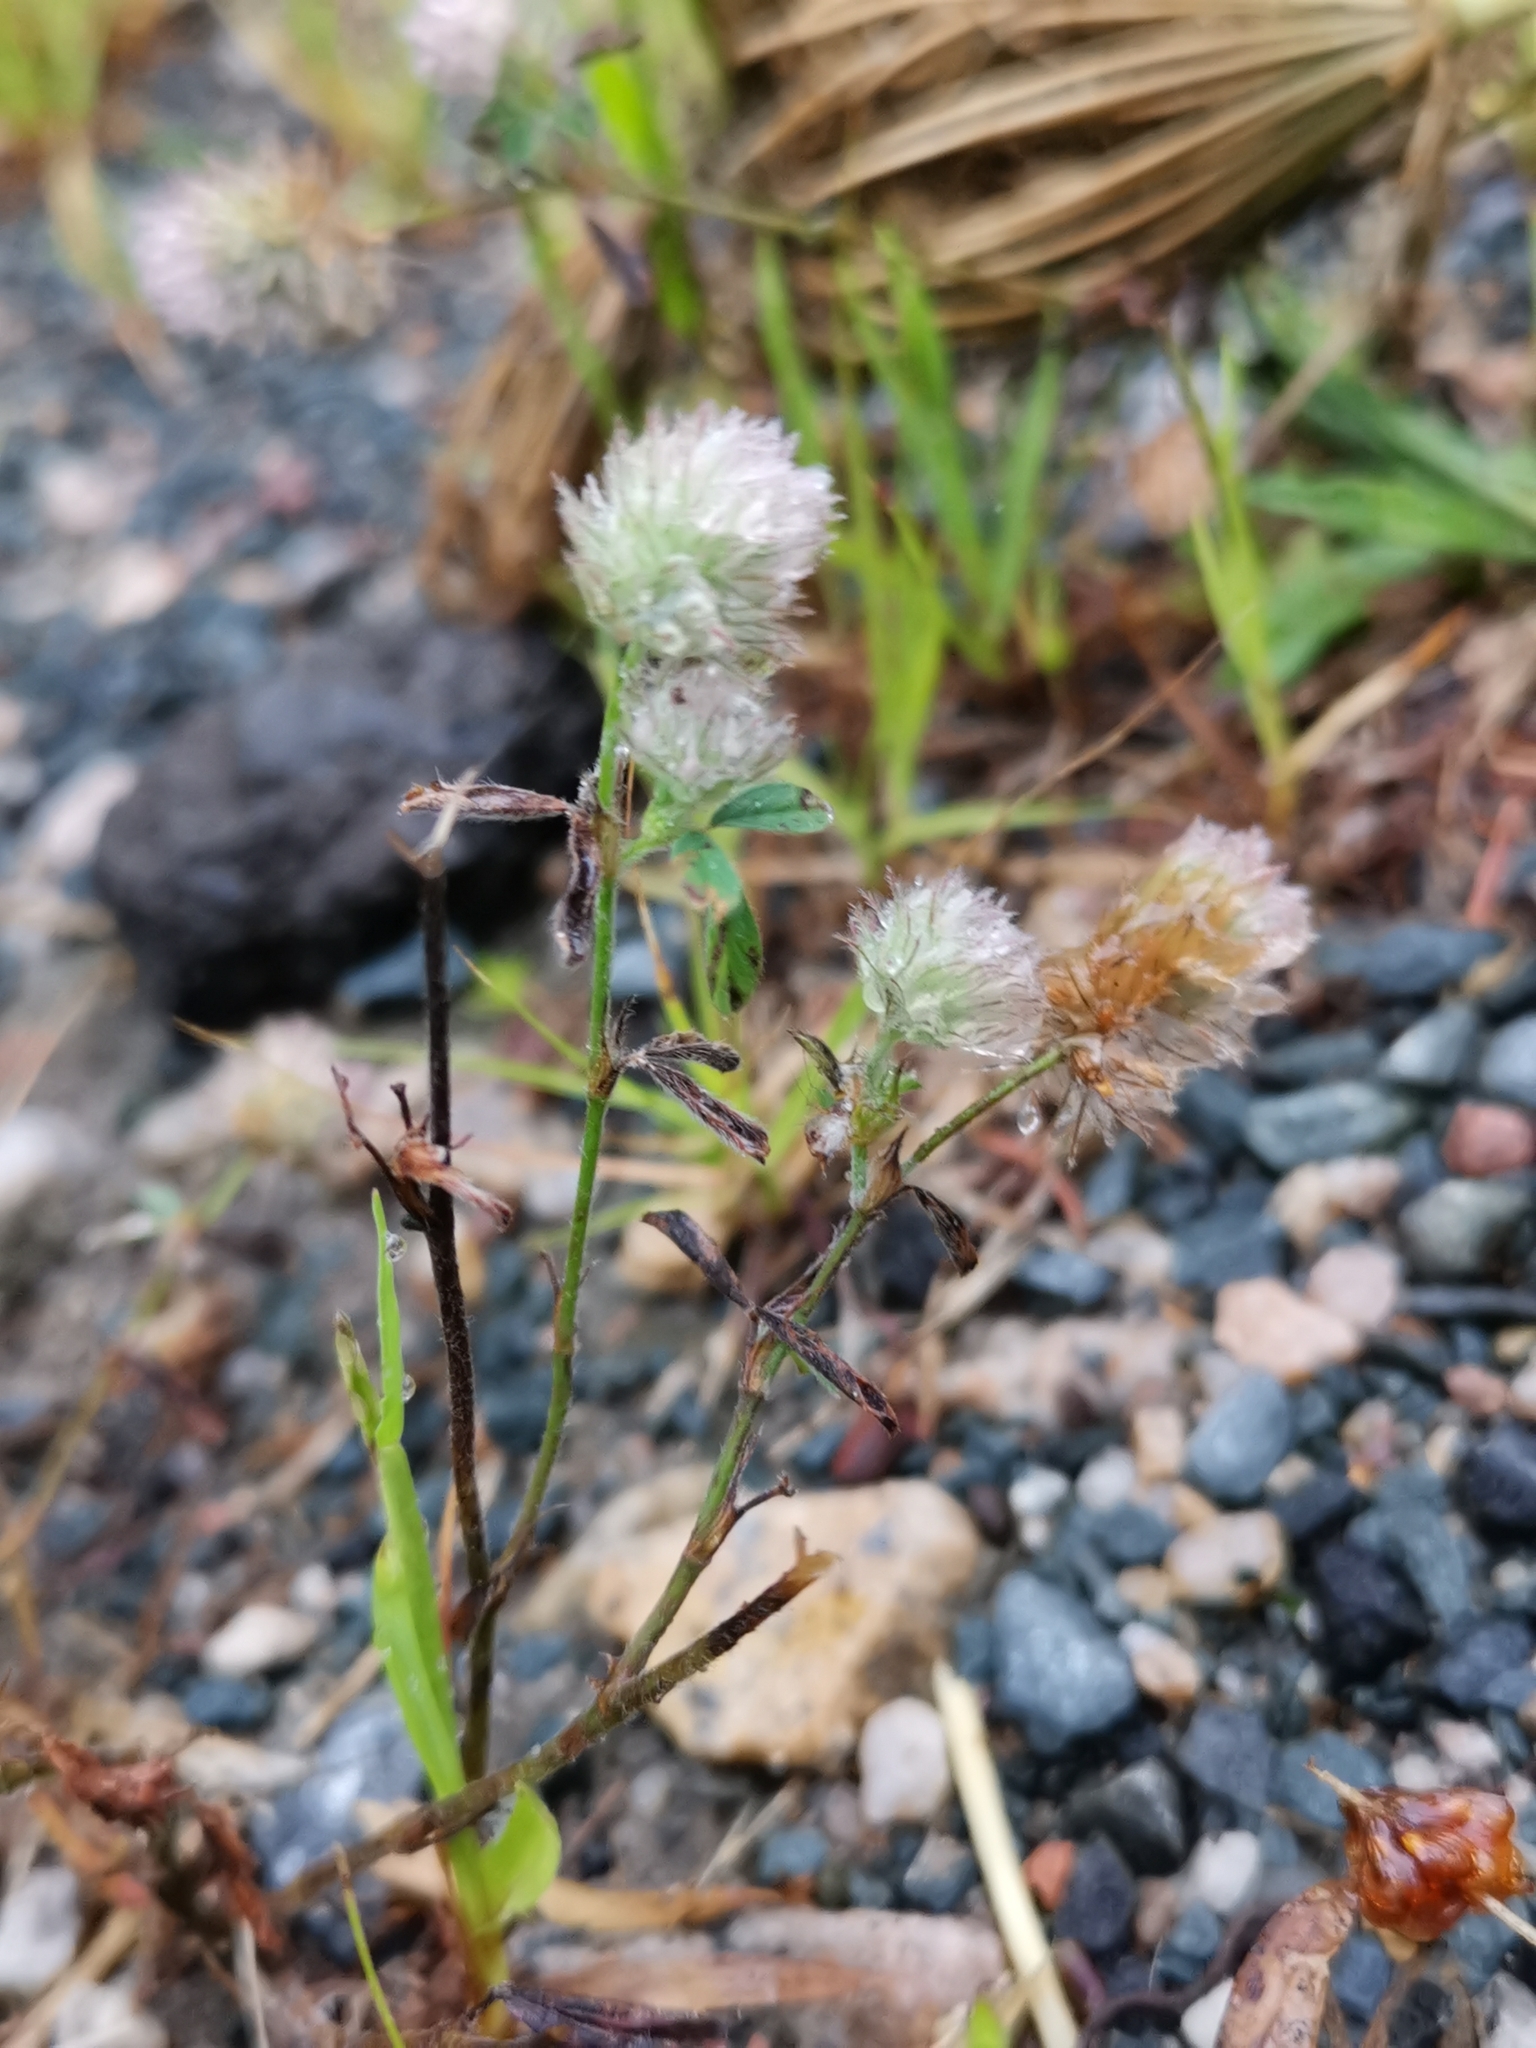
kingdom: Plantae
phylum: Tracheophyta
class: Magnoliopsida
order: Fabales
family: Fabaceae
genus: Trifolium
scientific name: Trifolium arvense
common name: Hare's-foot clover
